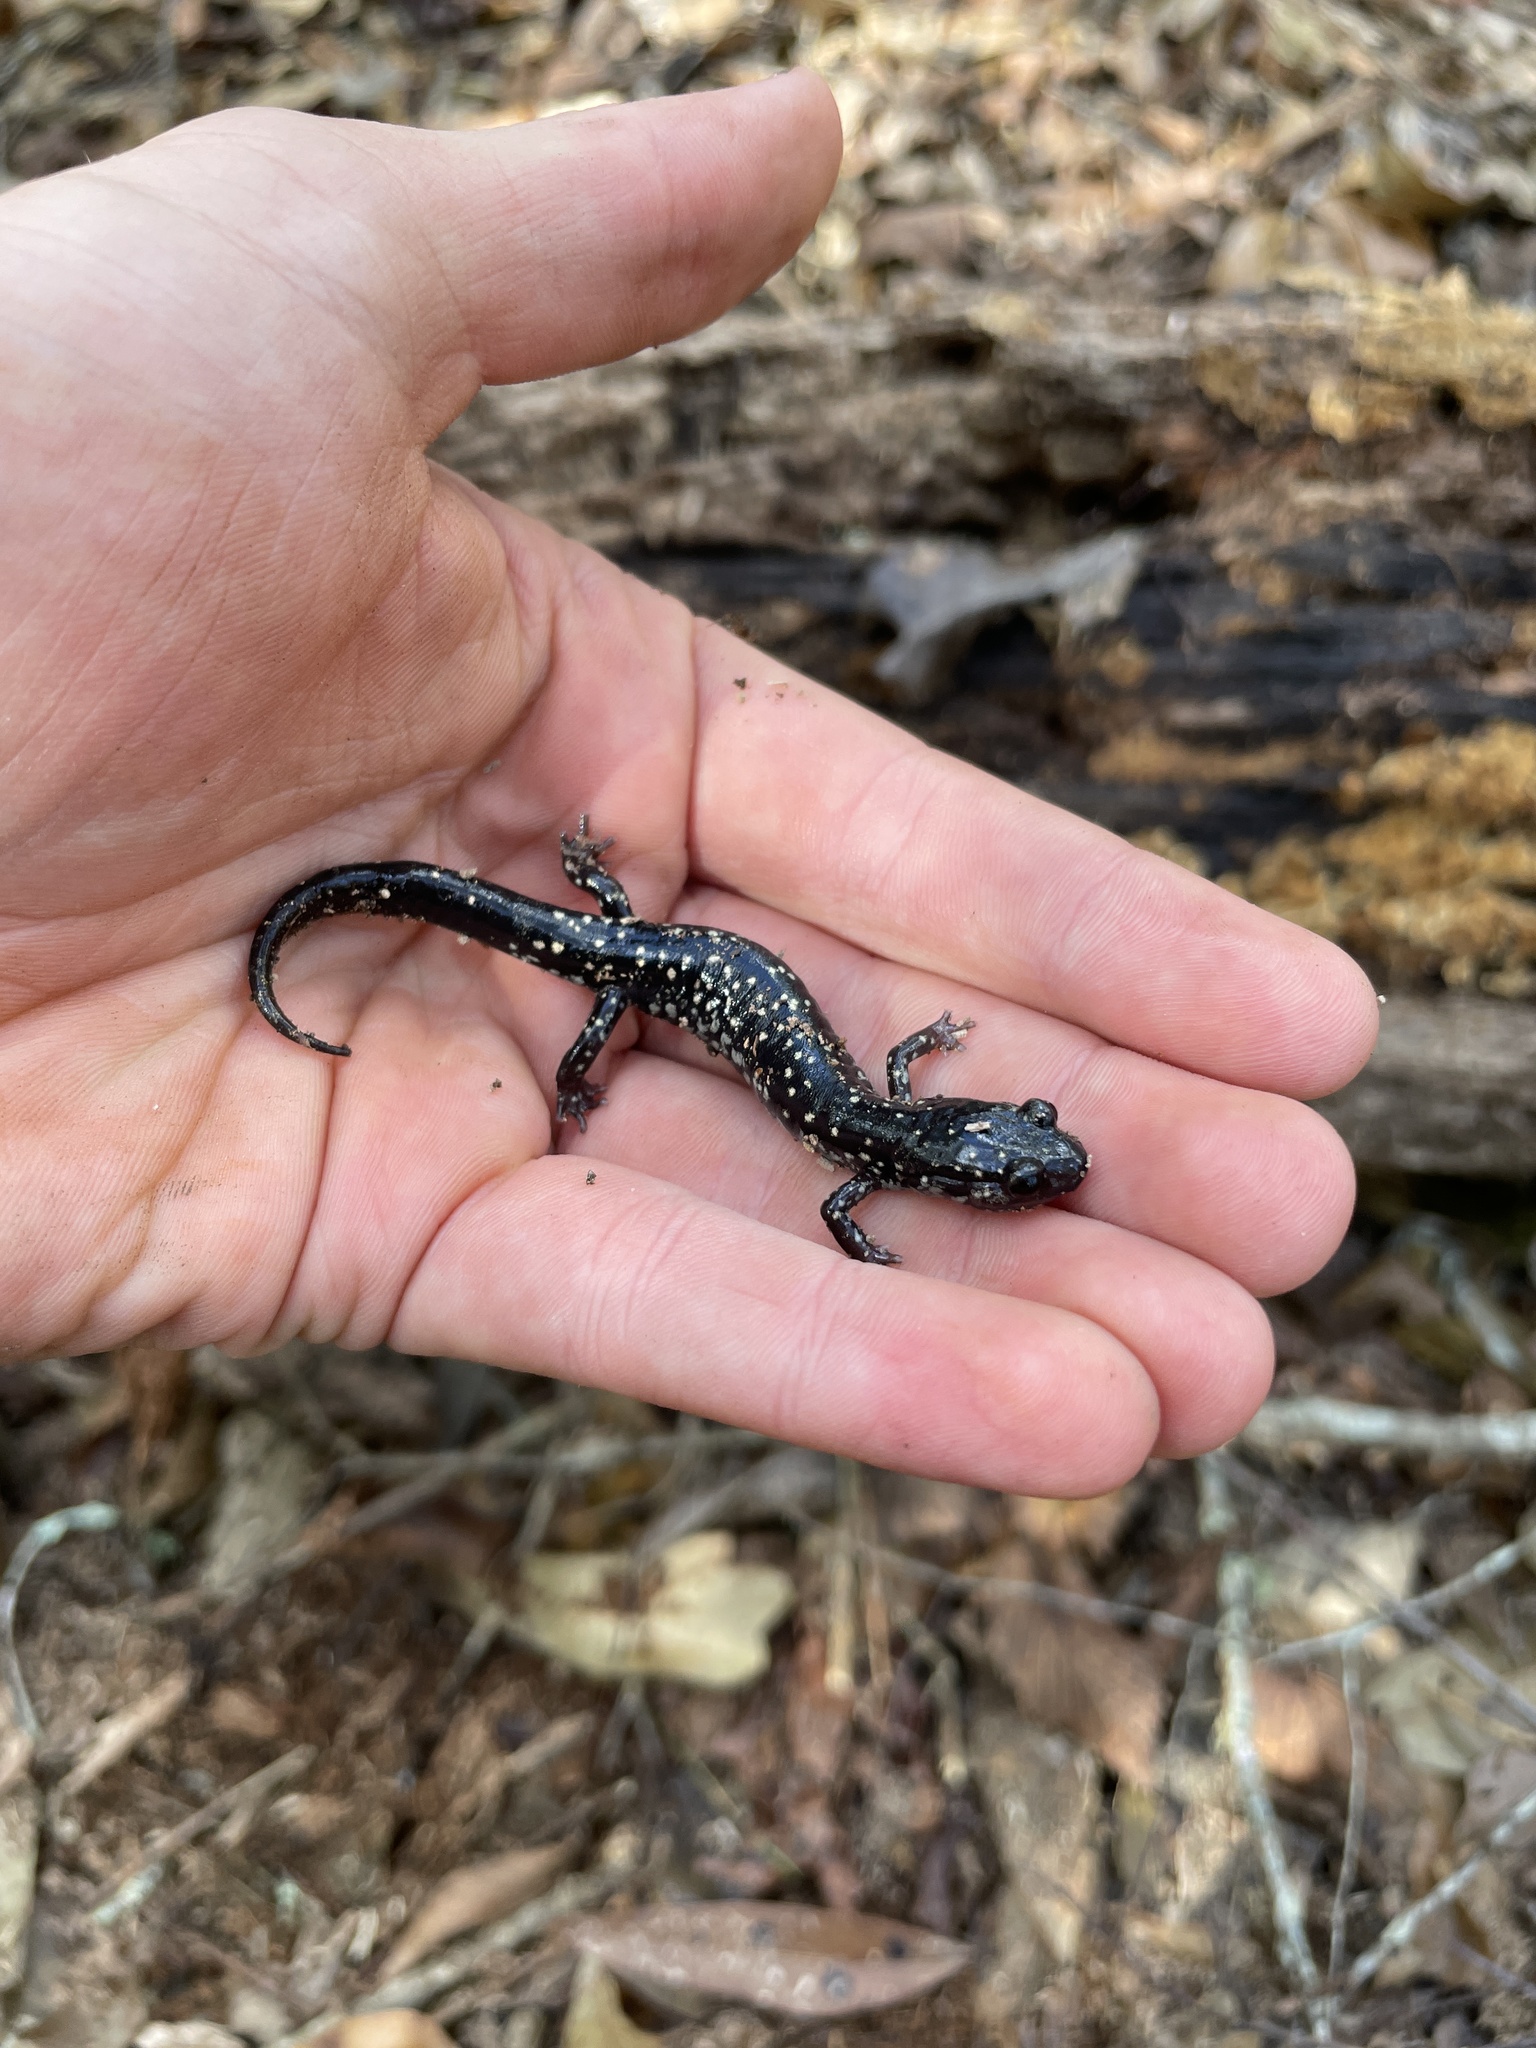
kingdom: Animalia
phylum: Chordata
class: Amphibia
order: Caudata
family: Plethodontidae
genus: Plethodon
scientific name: Plethodon mississippi
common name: Mississippi slimy salamander
